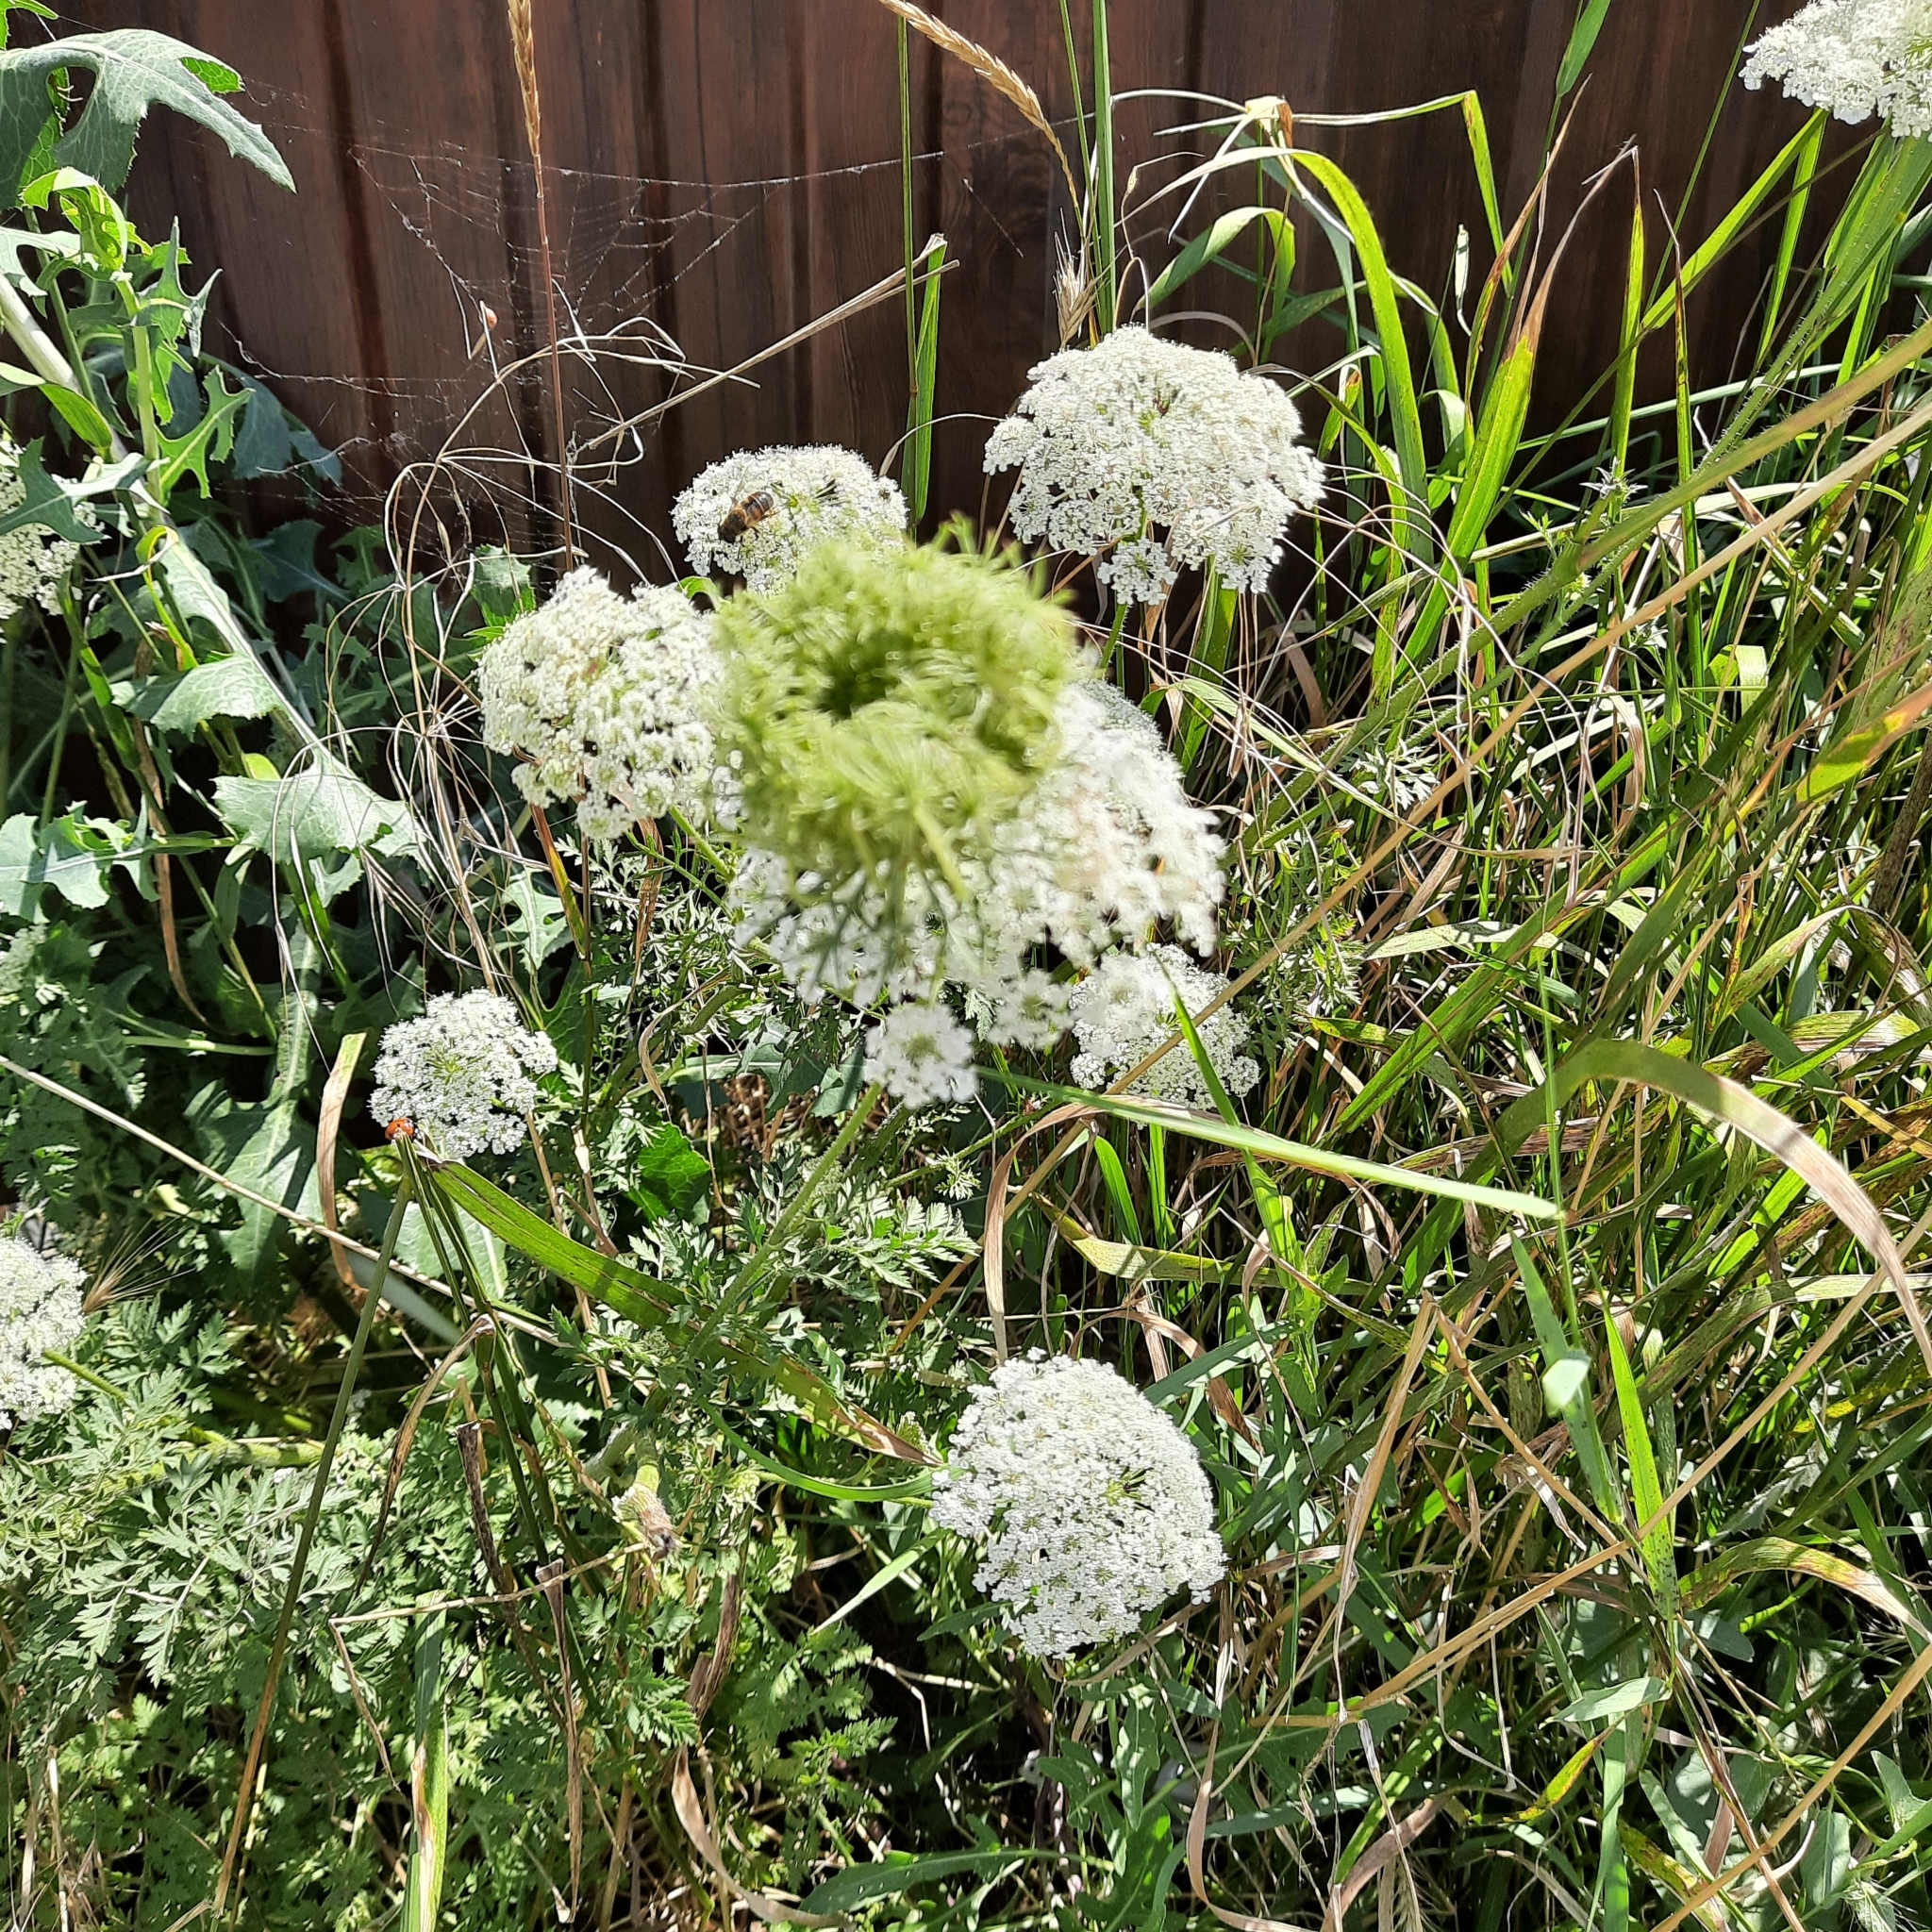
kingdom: Plantae
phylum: Tracheophyta
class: Magnoliopsida
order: Apiales
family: Apiaceae
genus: Daucus
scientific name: Daucus carota
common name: Wild carrot
